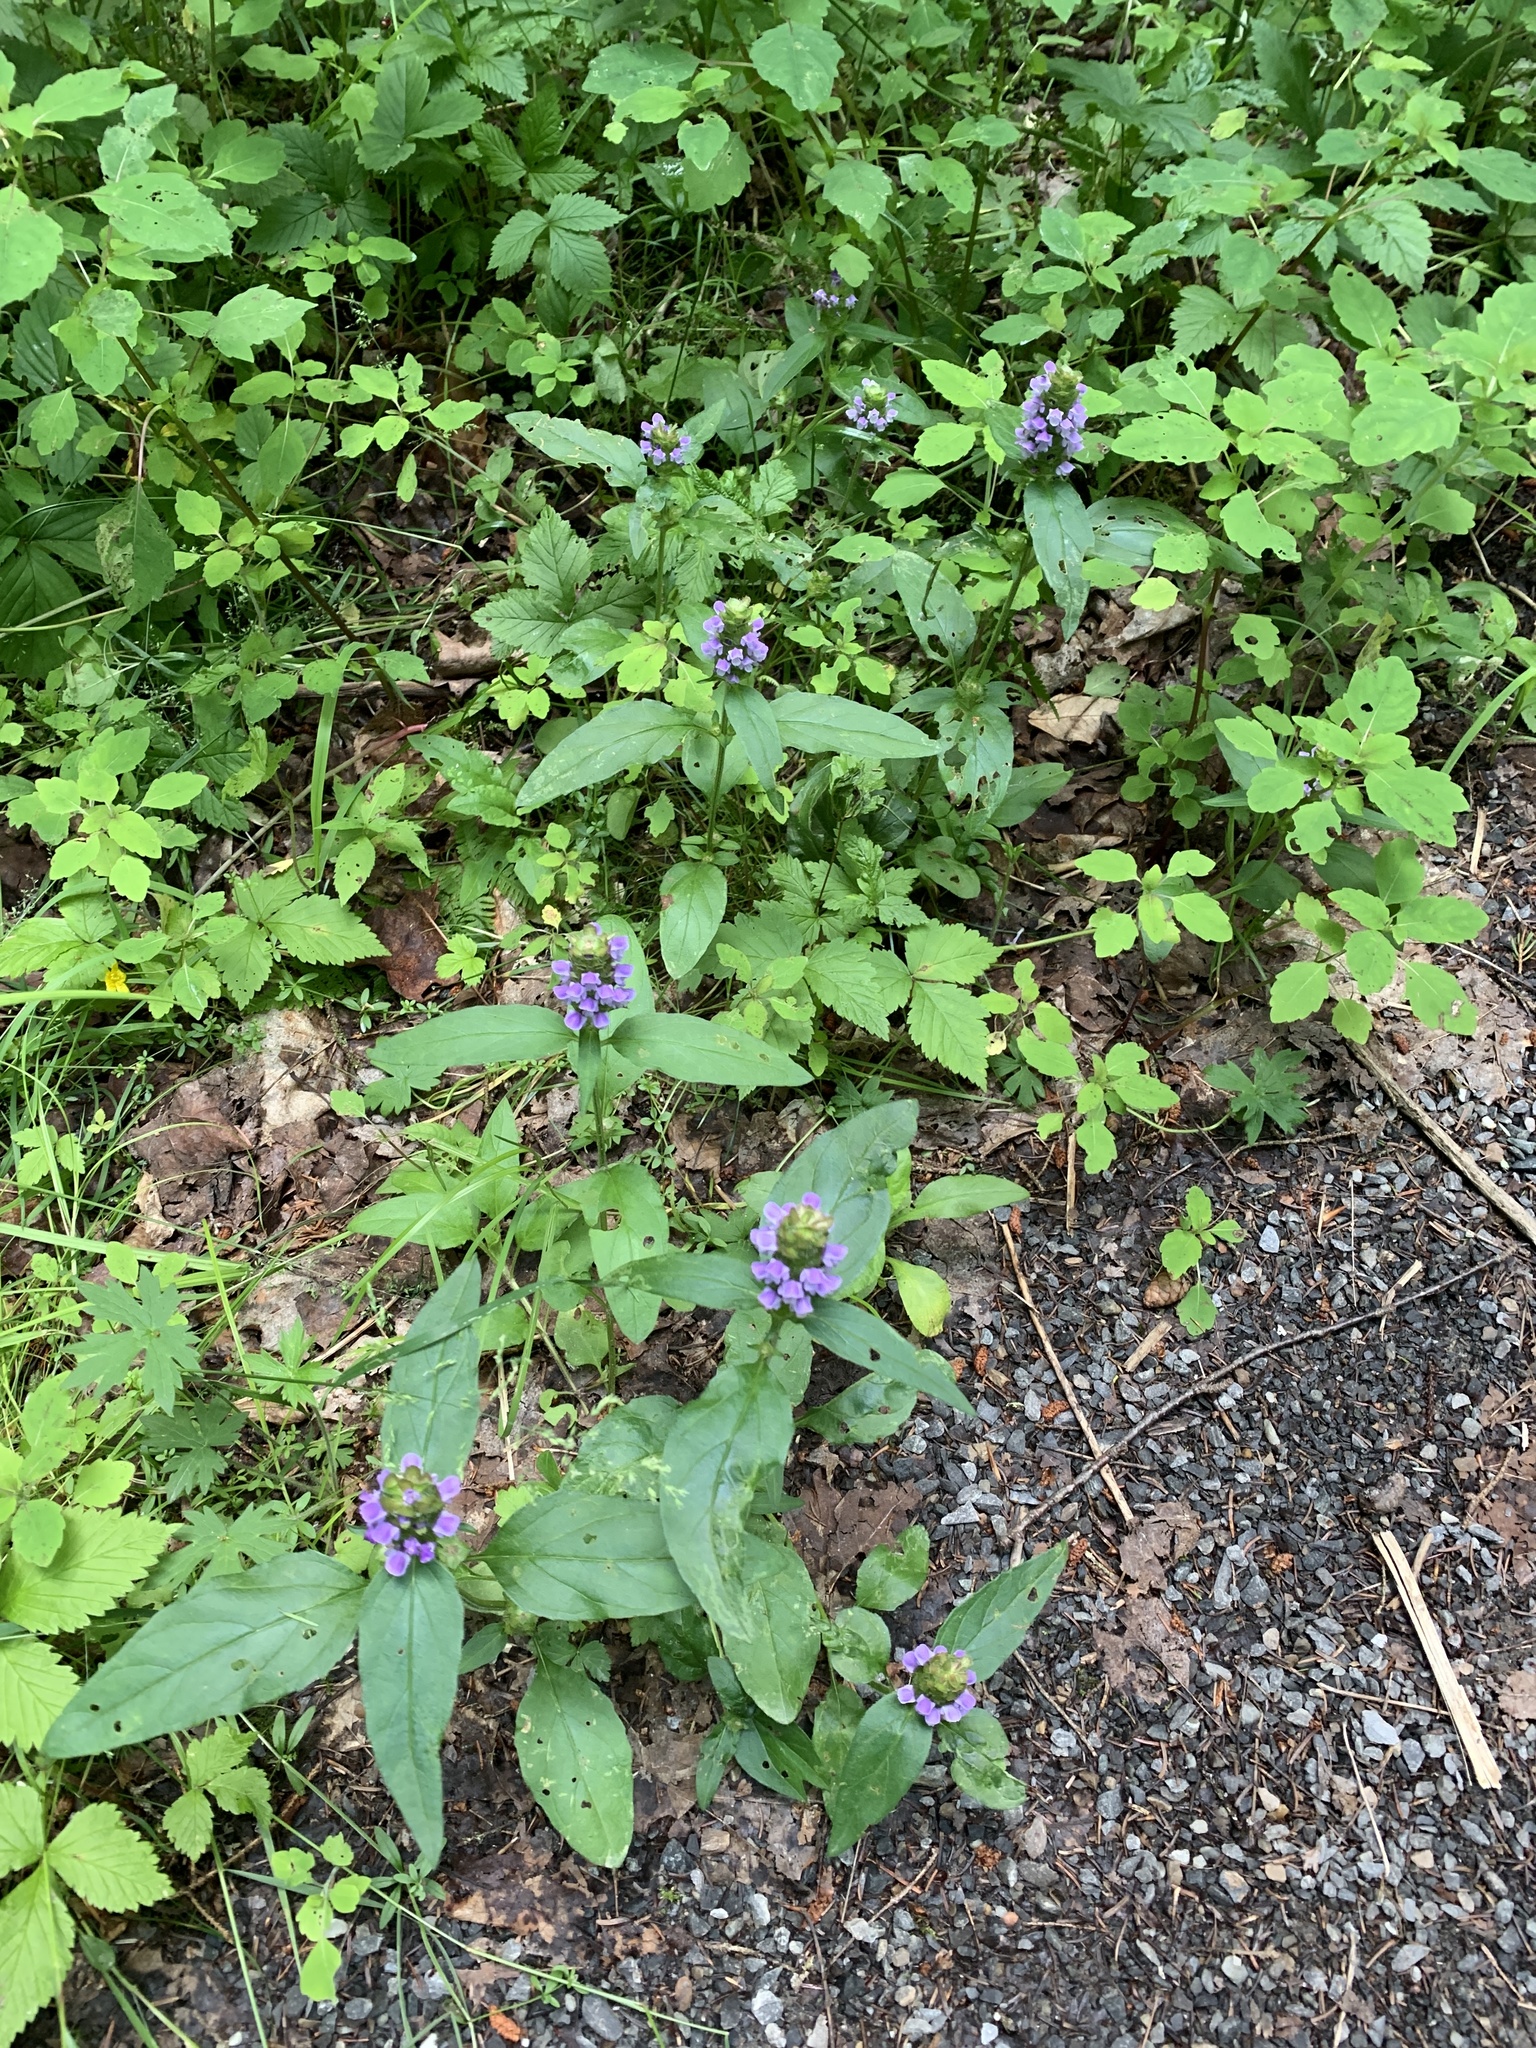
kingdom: Plantae
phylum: Tracheophyta
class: Magnoliopsida
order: Lamiales
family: Lamiaceae
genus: Prunella
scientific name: Prunella vulgaris
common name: Heal-all
